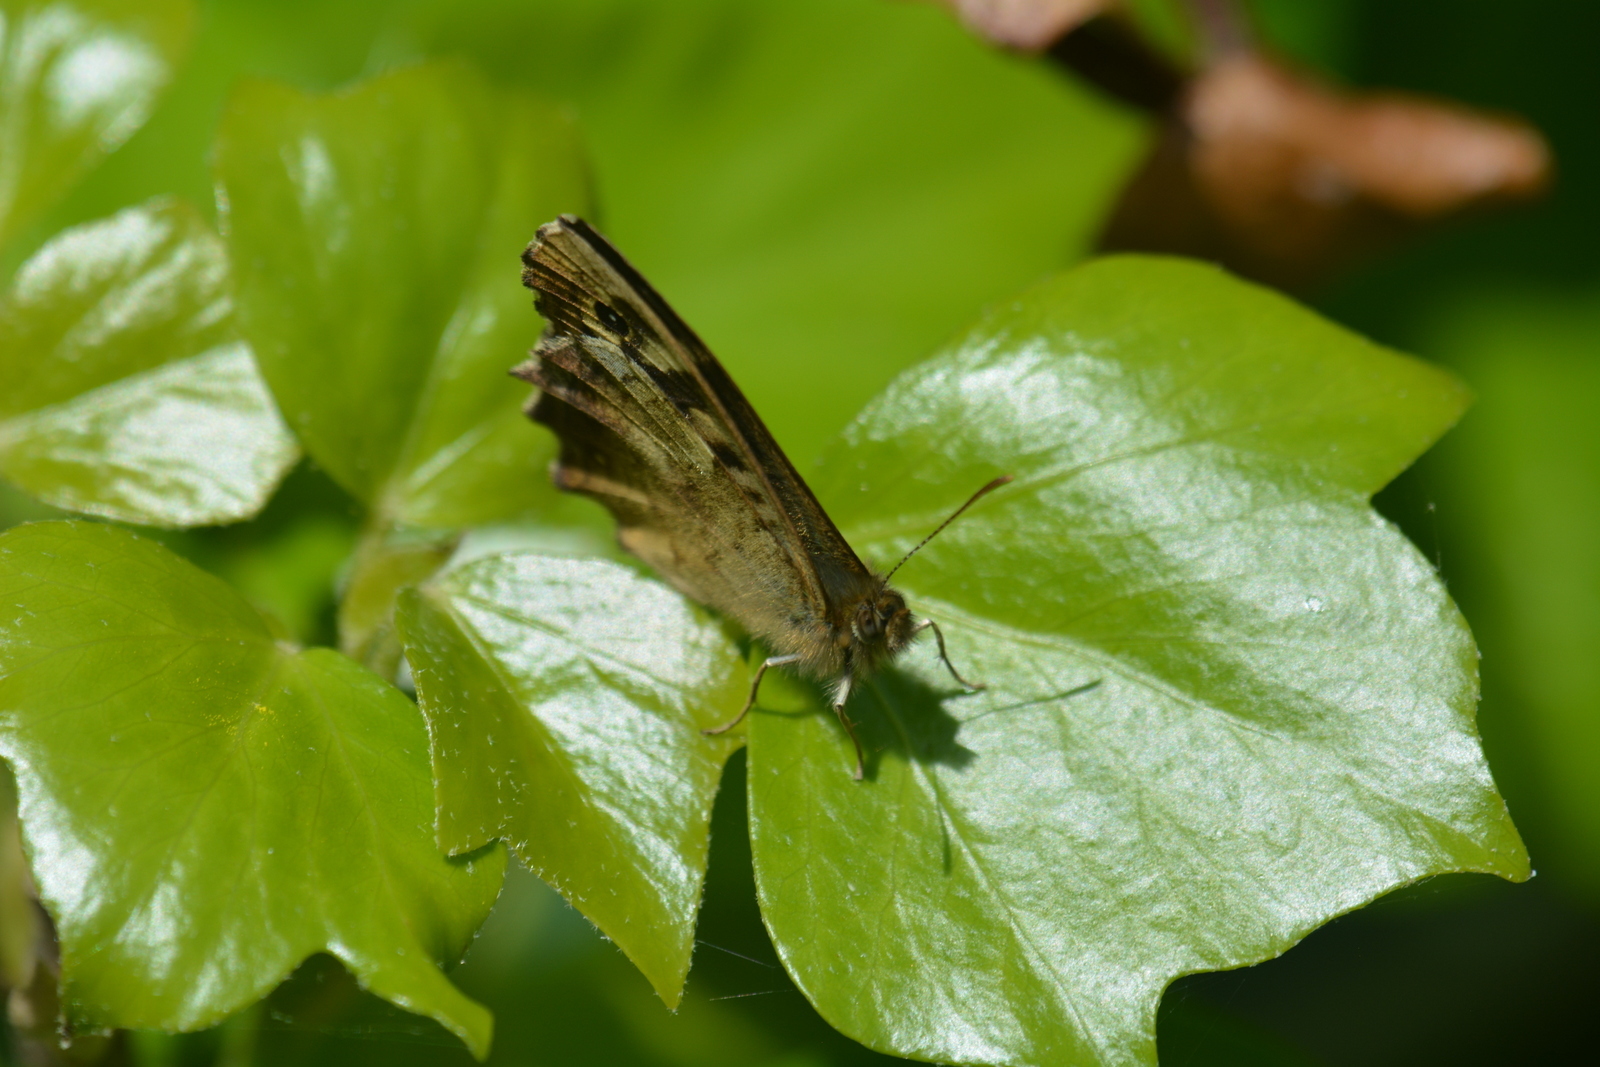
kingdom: Animalia
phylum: Arthropoda
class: Insecta
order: Lepidoptera
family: Nymphalidae
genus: Pararge
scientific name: Pararge aegeria
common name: Speckled wood
